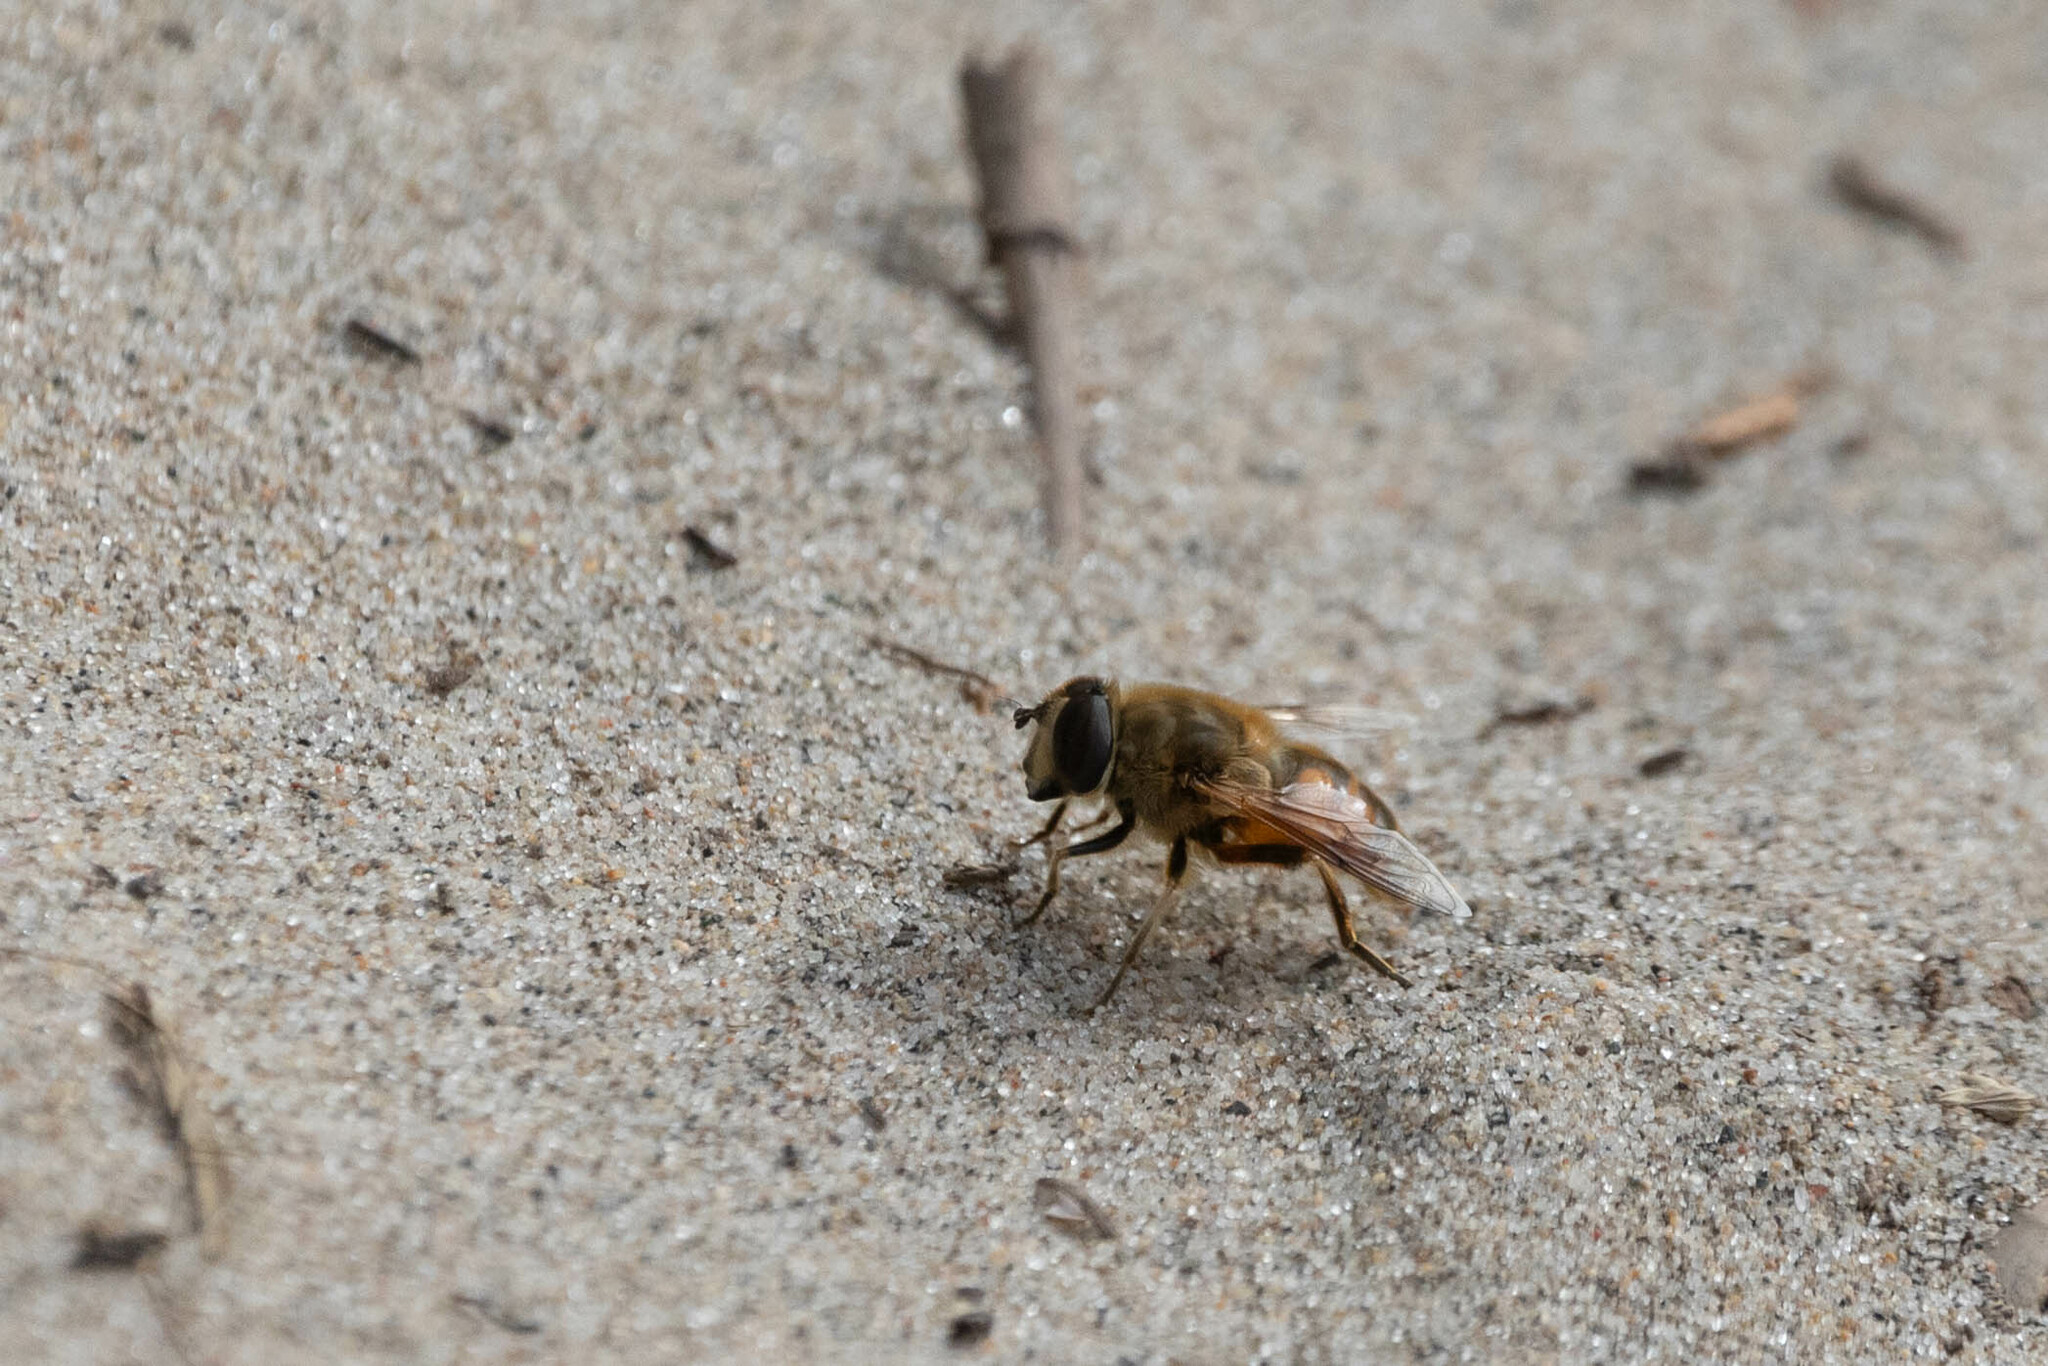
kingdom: Animalia
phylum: Arthropoda
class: Insecta
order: Diptera
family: Syrphidae
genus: Eristalis
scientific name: Eristalis tenax
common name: Drone fly
